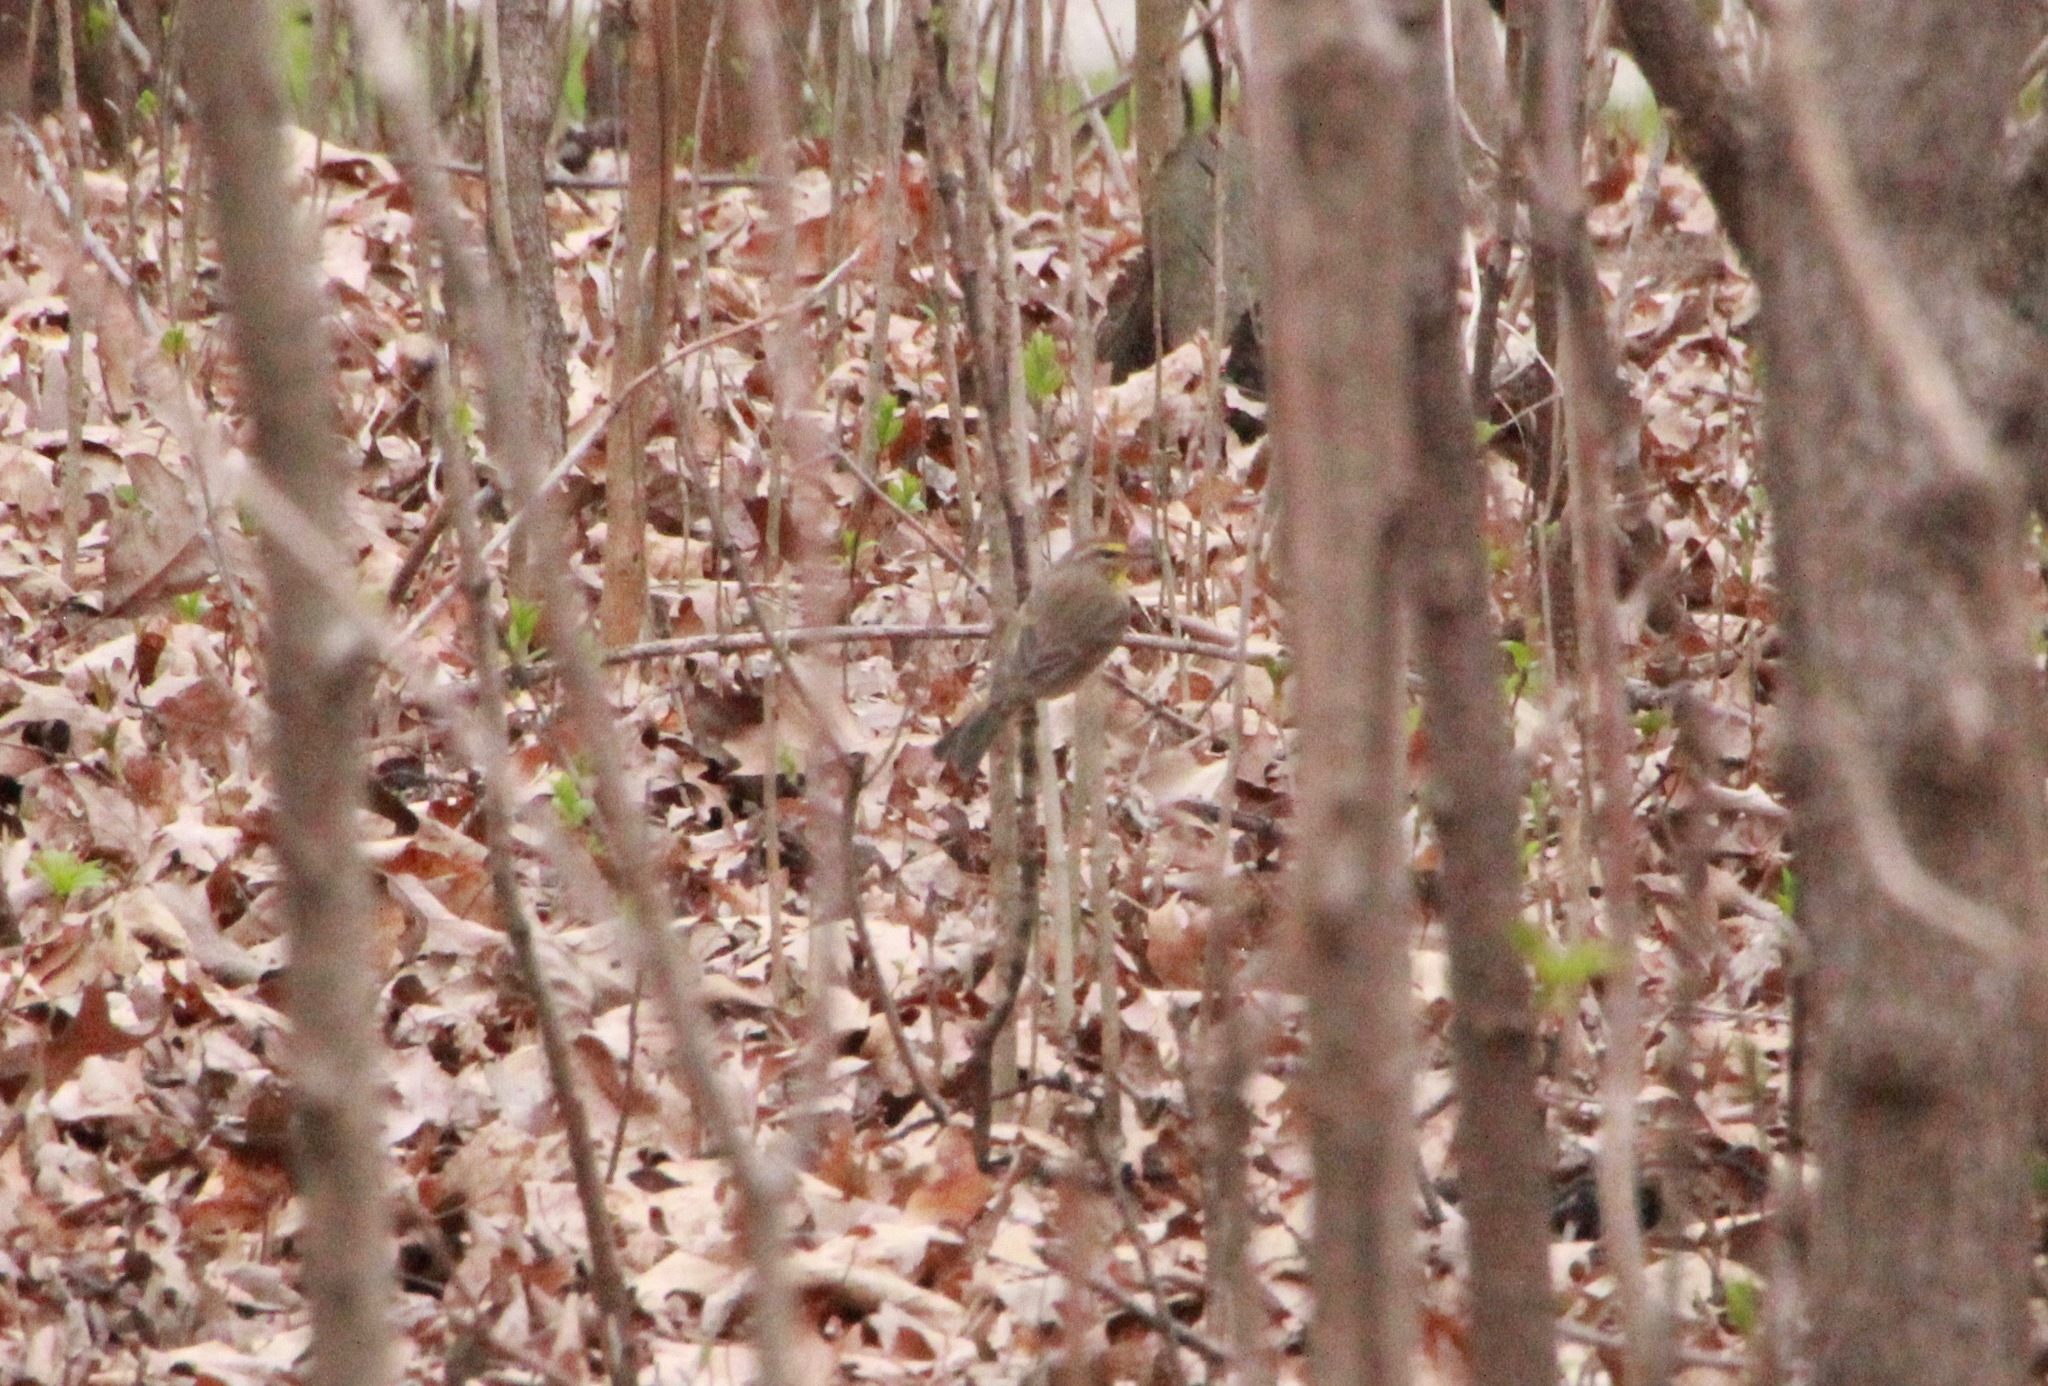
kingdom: Animalia
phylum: Chordata
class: Aves
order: Passeriformes
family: Parulidae
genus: Setophaga
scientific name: Setophaga palmarum
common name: Palm warbler
